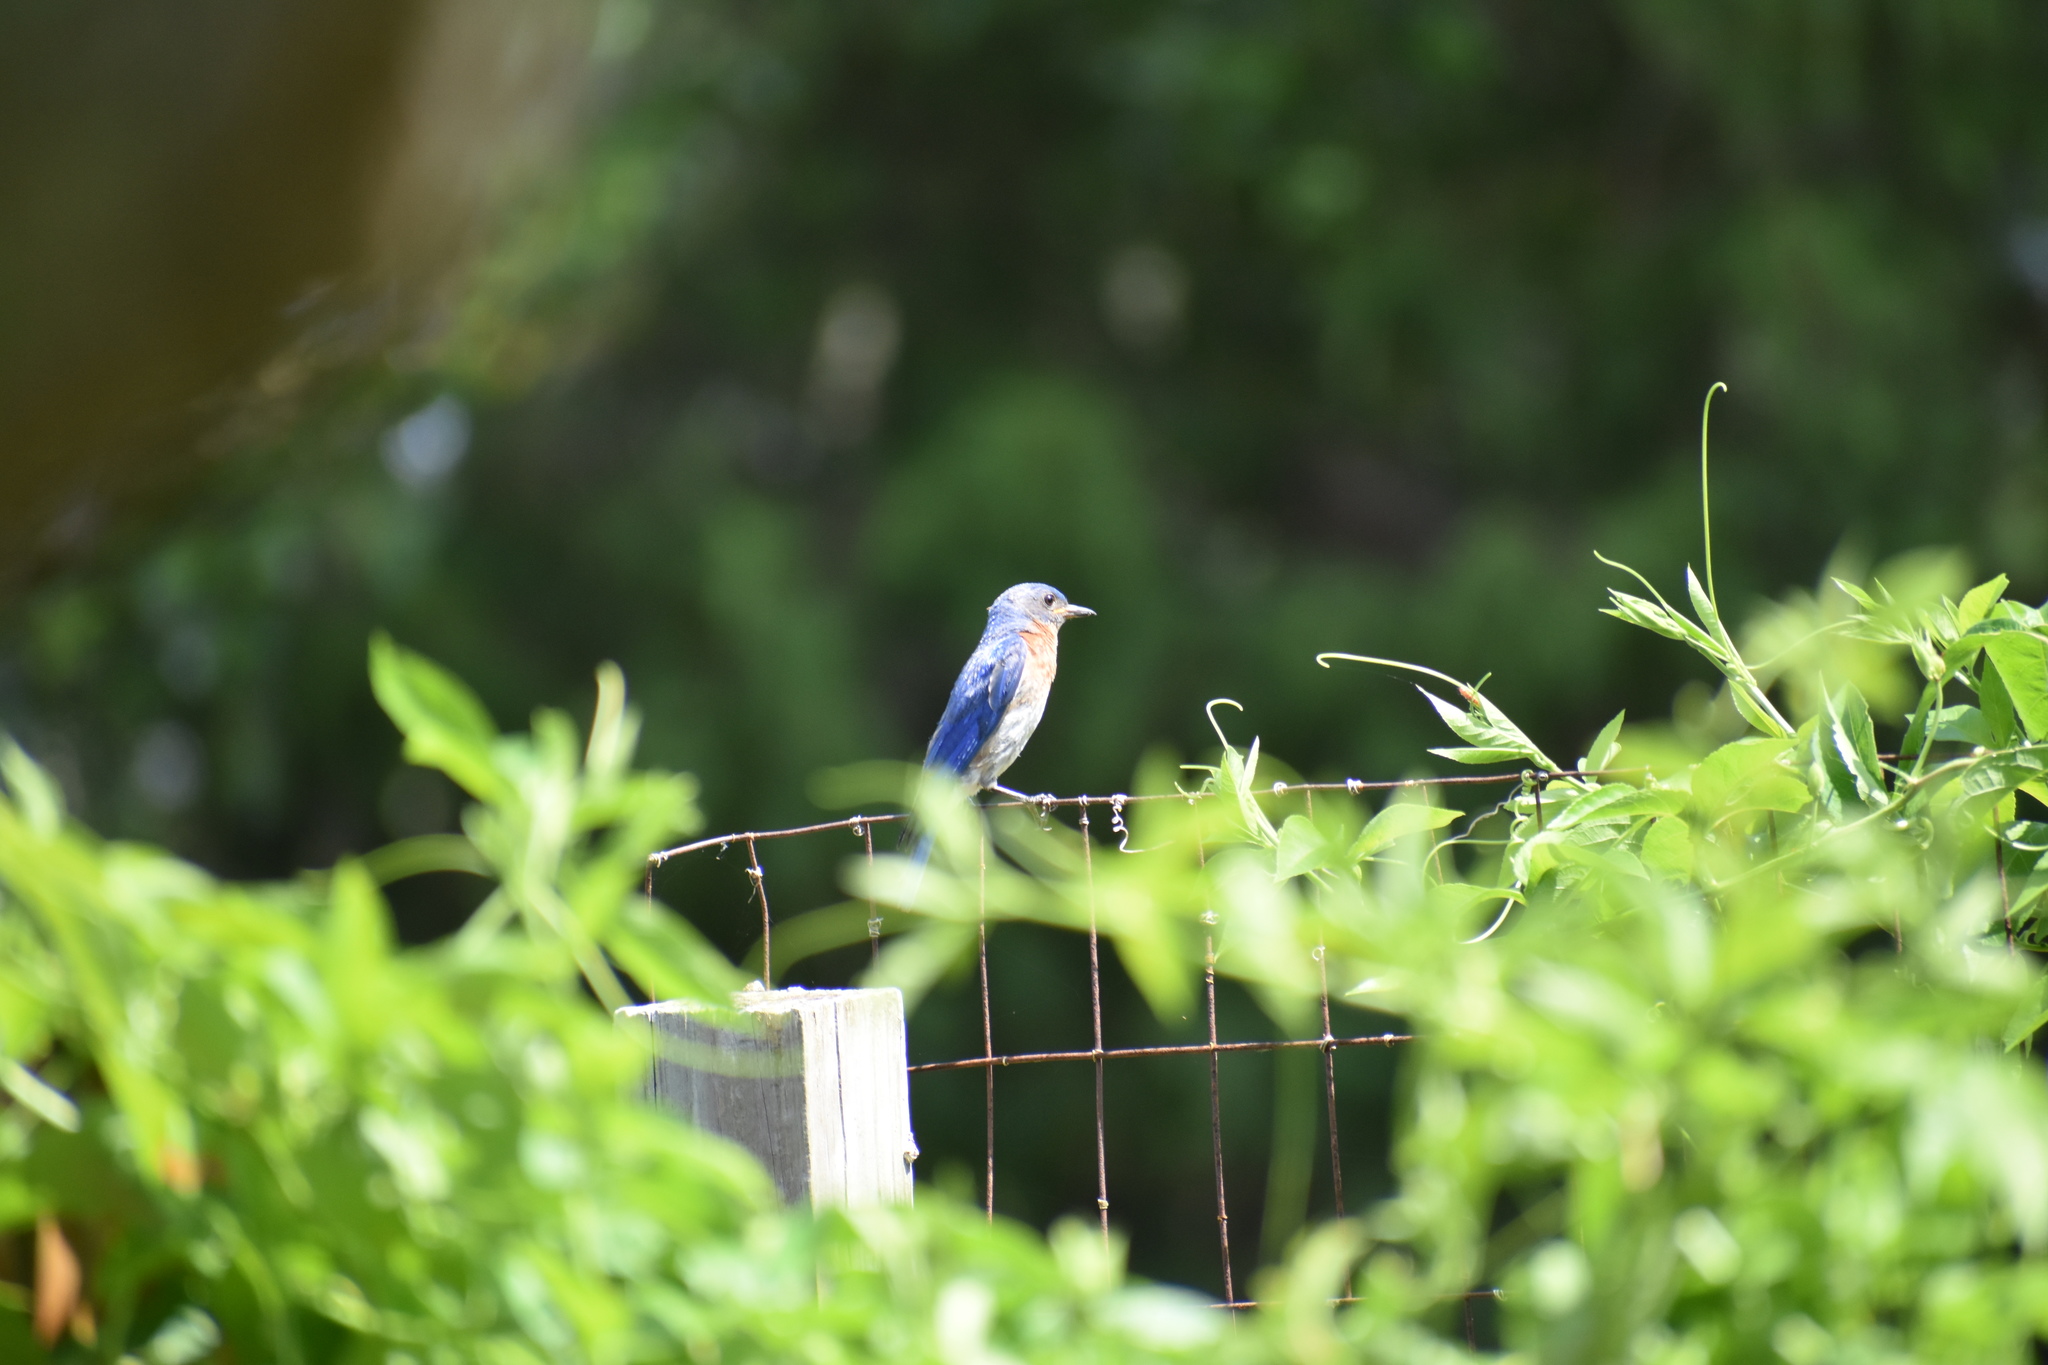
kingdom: Animalia
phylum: Chordata
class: Aves
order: Passeriformes
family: Turdidae
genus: Sialia
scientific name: Sialia sialis
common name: Eastern bluebird
